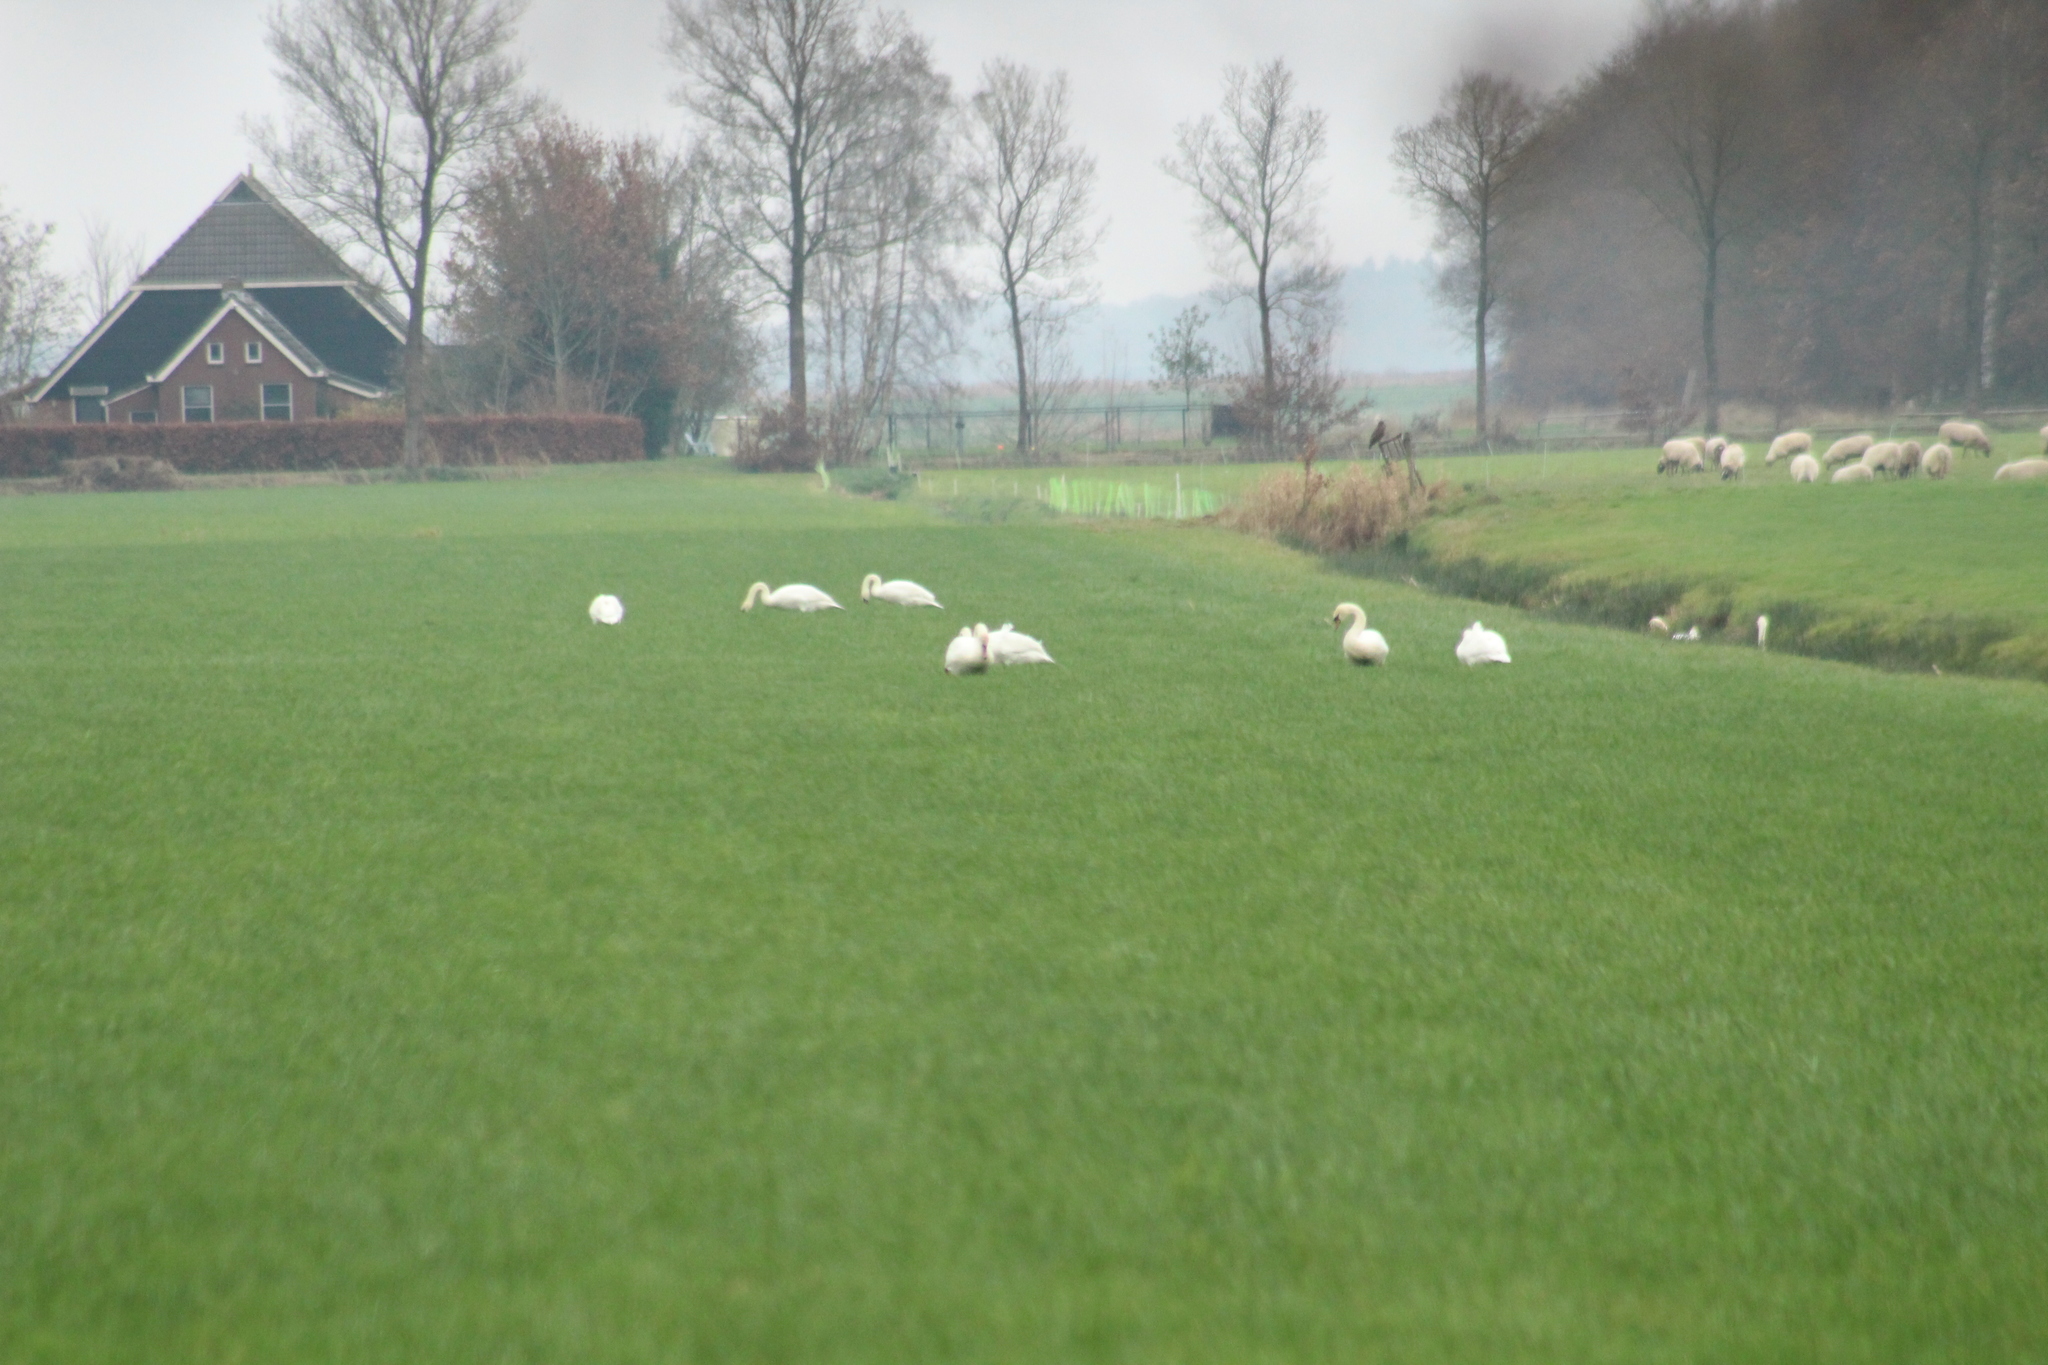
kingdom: Animalia
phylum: Chordata
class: Aves
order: Anseriformes
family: Anatidae
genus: Cygnus
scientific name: Cygnus olor
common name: Mute swan
